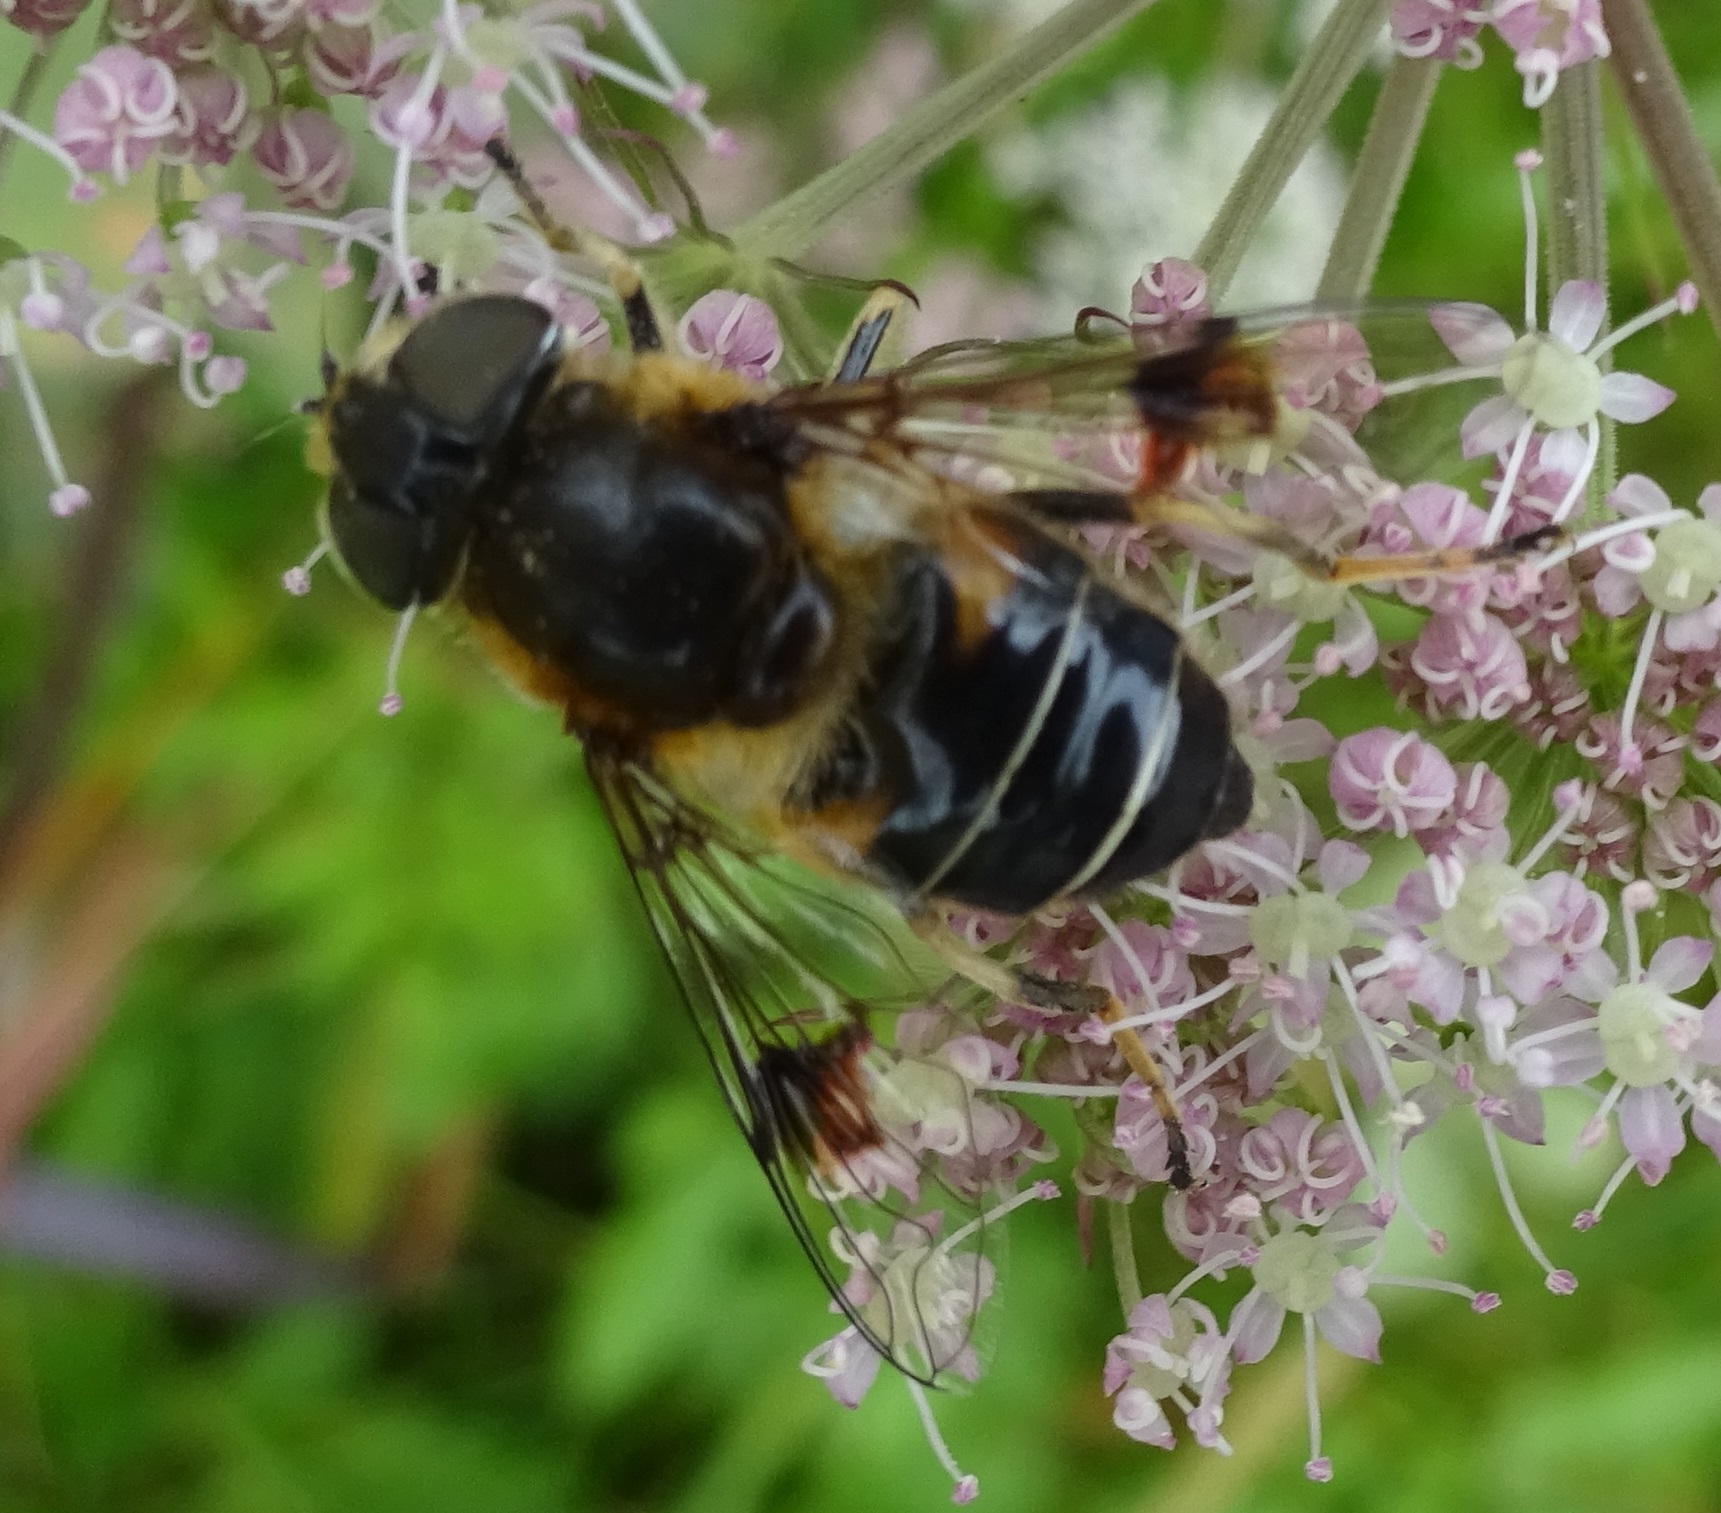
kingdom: Animalia
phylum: Arthropoda
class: Insecta
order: Diptera
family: Syrphidae
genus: Eristalis
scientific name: Eristalis rupium
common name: Hover fly
